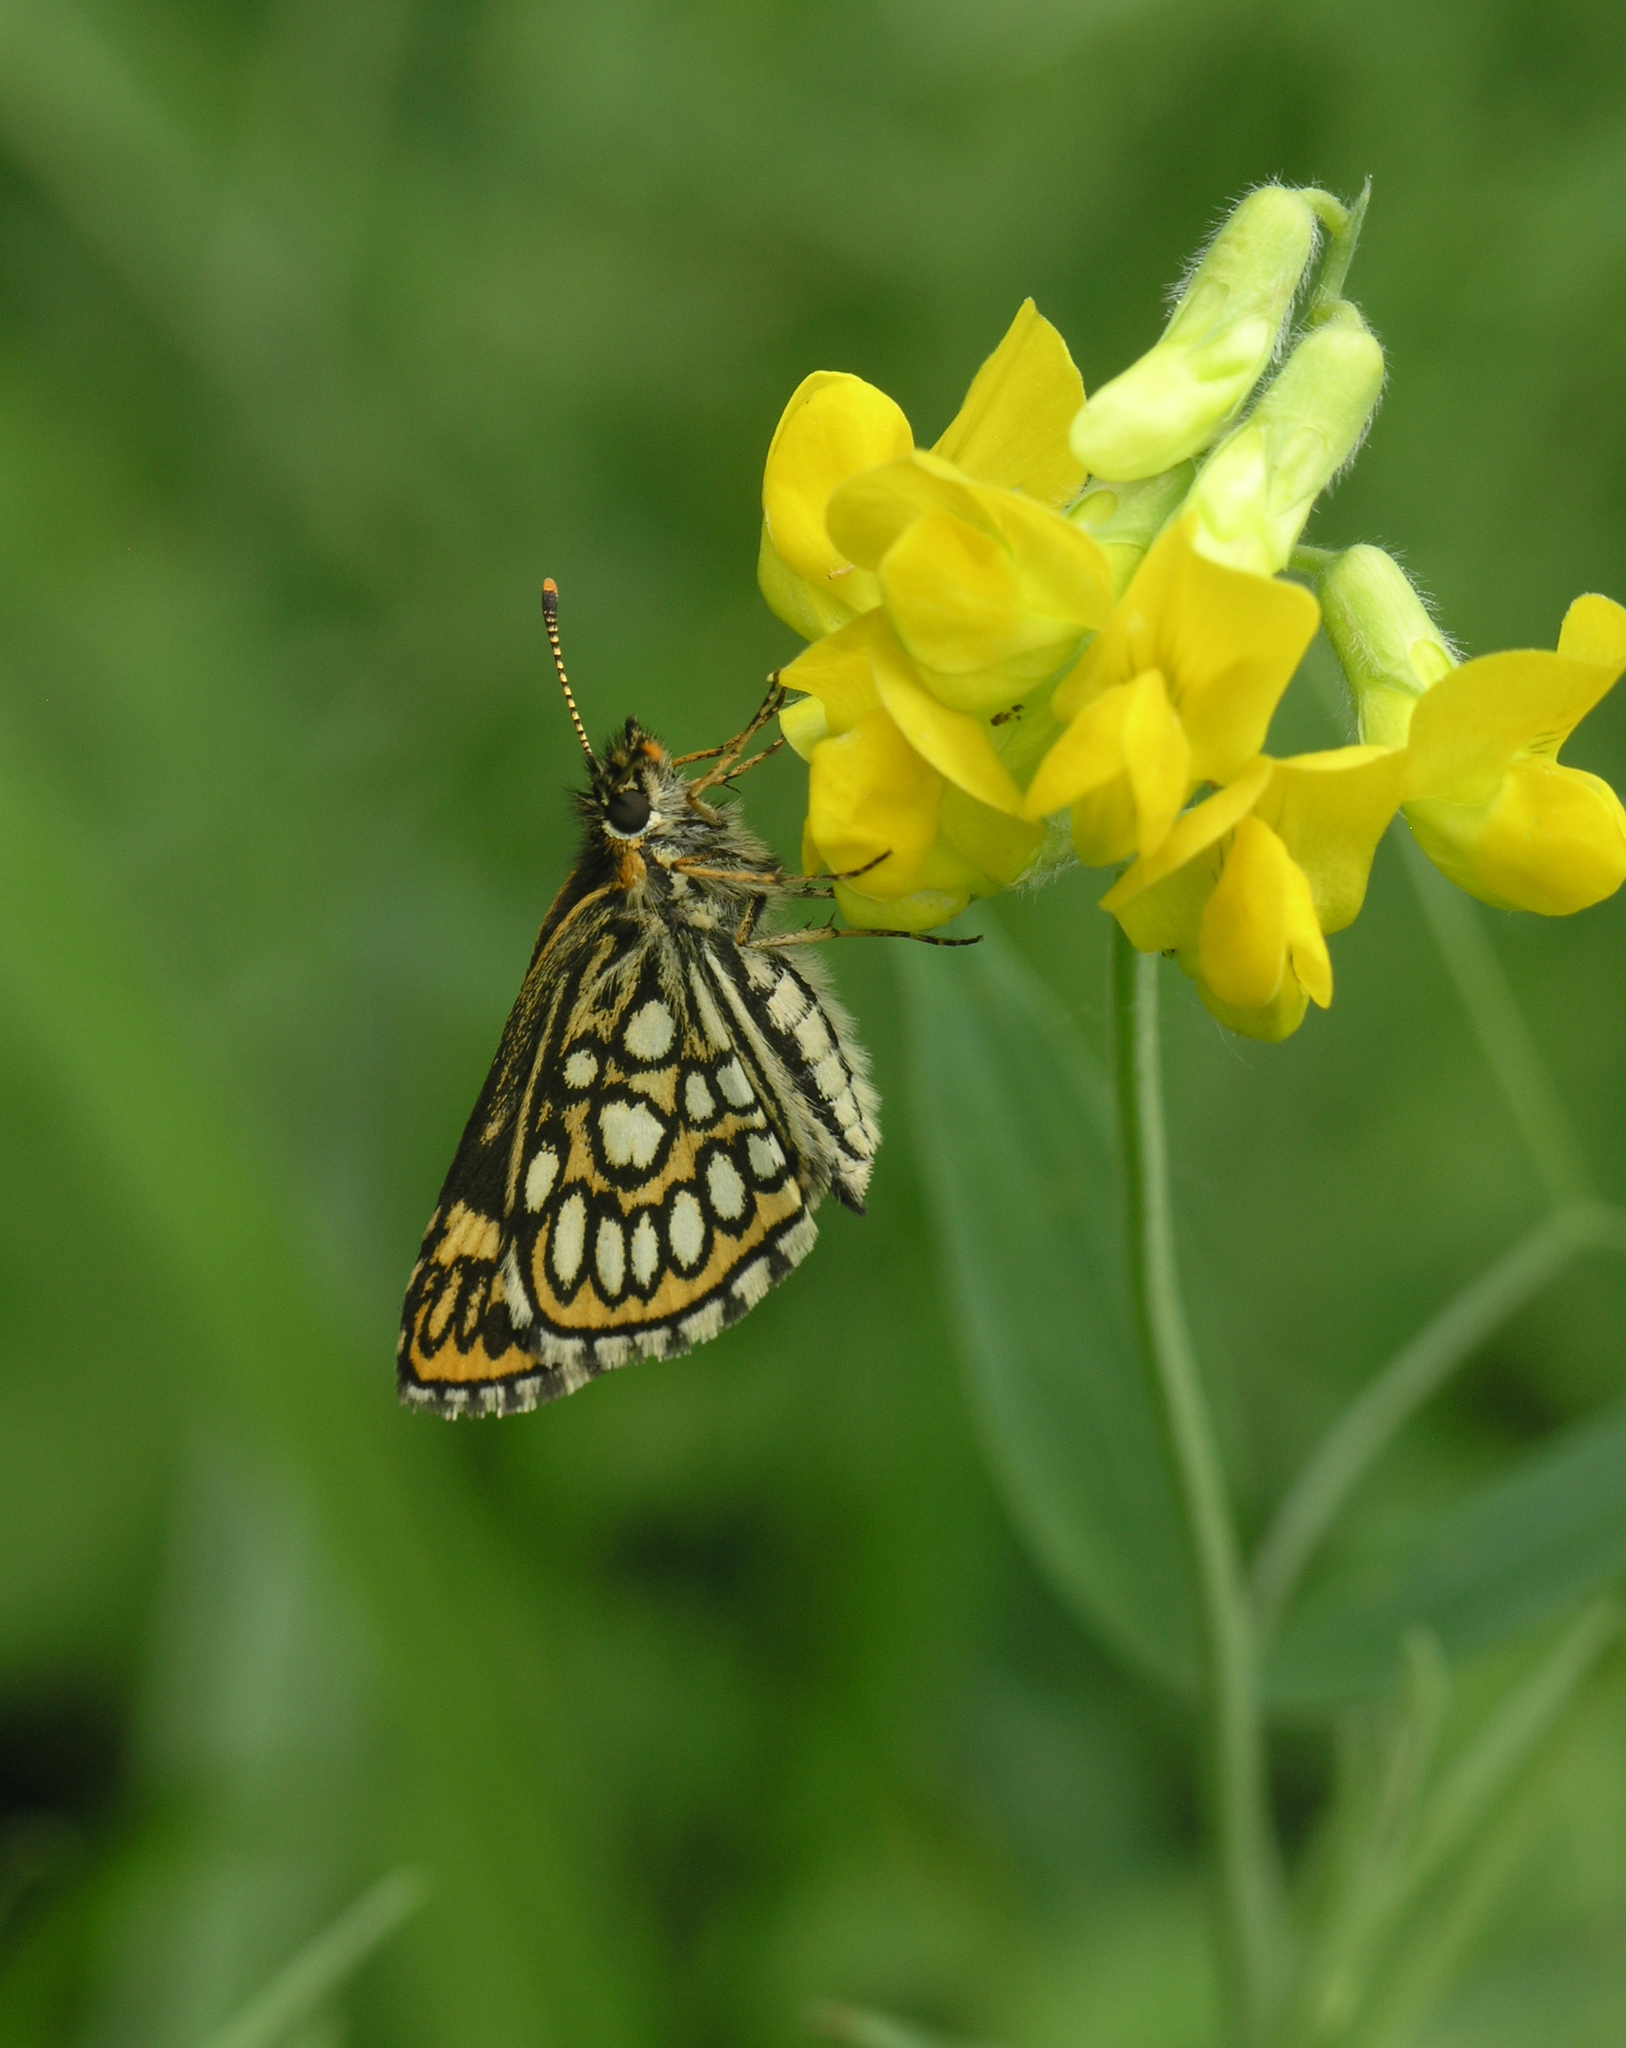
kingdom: Animalia
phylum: Arthropoda
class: Insecta
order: Lepidoptera
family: Hesperiidae
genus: Heteropterus
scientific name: Heteropterus morpheus
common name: Large chequered skipper
